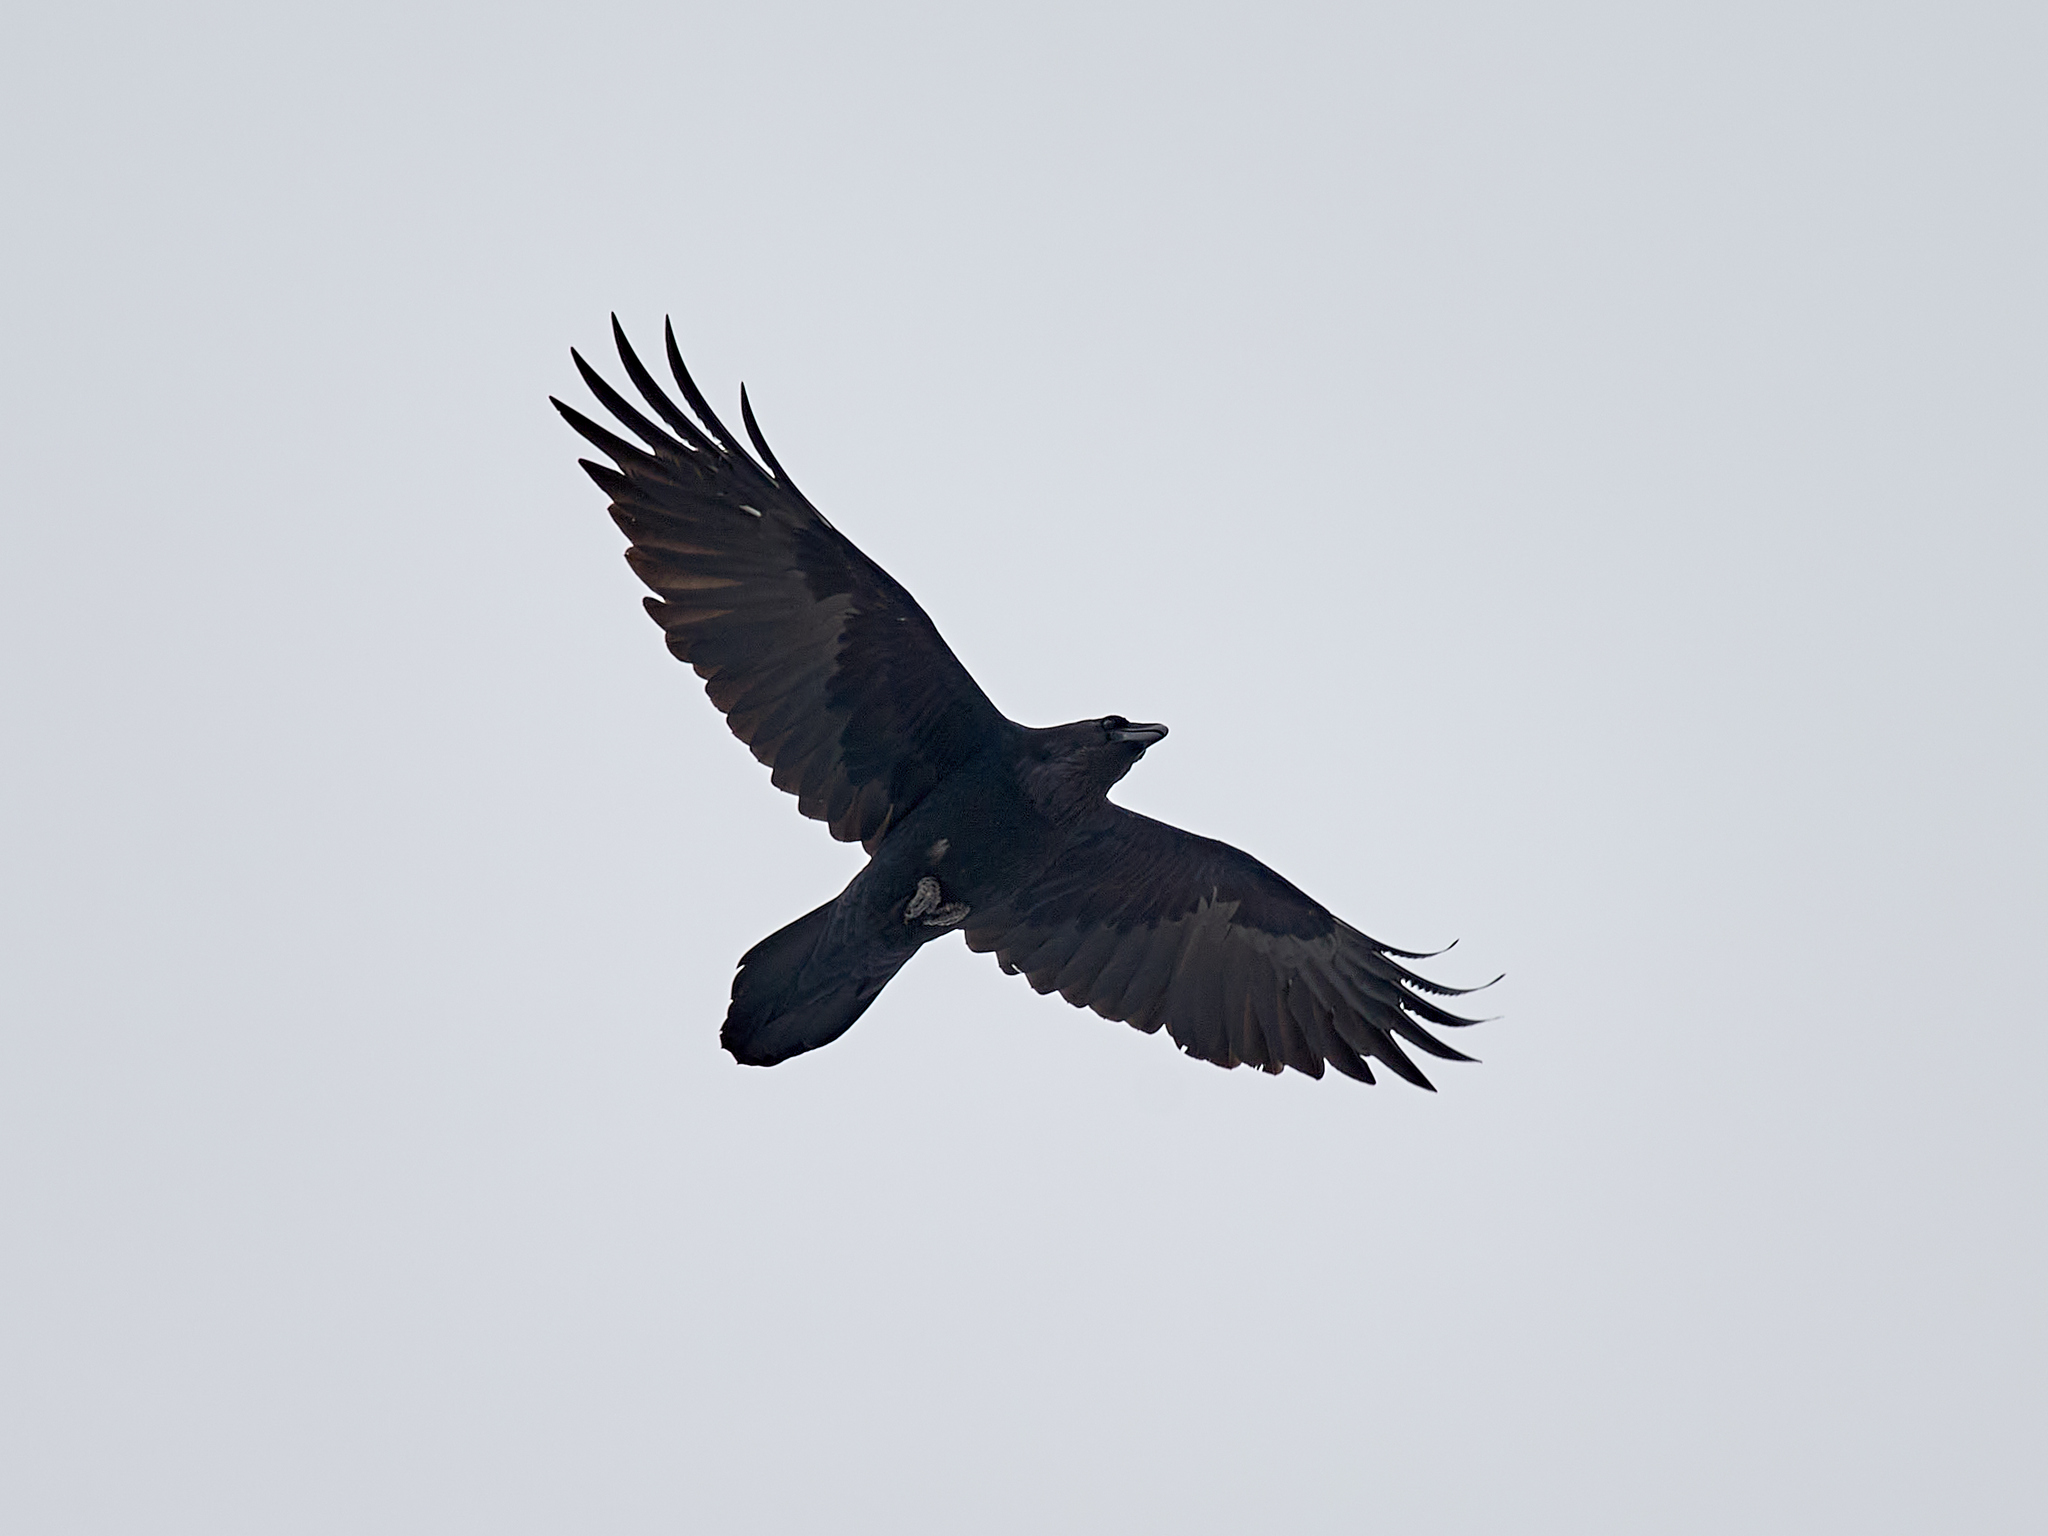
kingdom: Animalia
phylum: Chordata
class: Aves
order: Passeriformes
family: Corvidae
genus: Corvus
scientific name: Corvus corax
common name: Common raven
